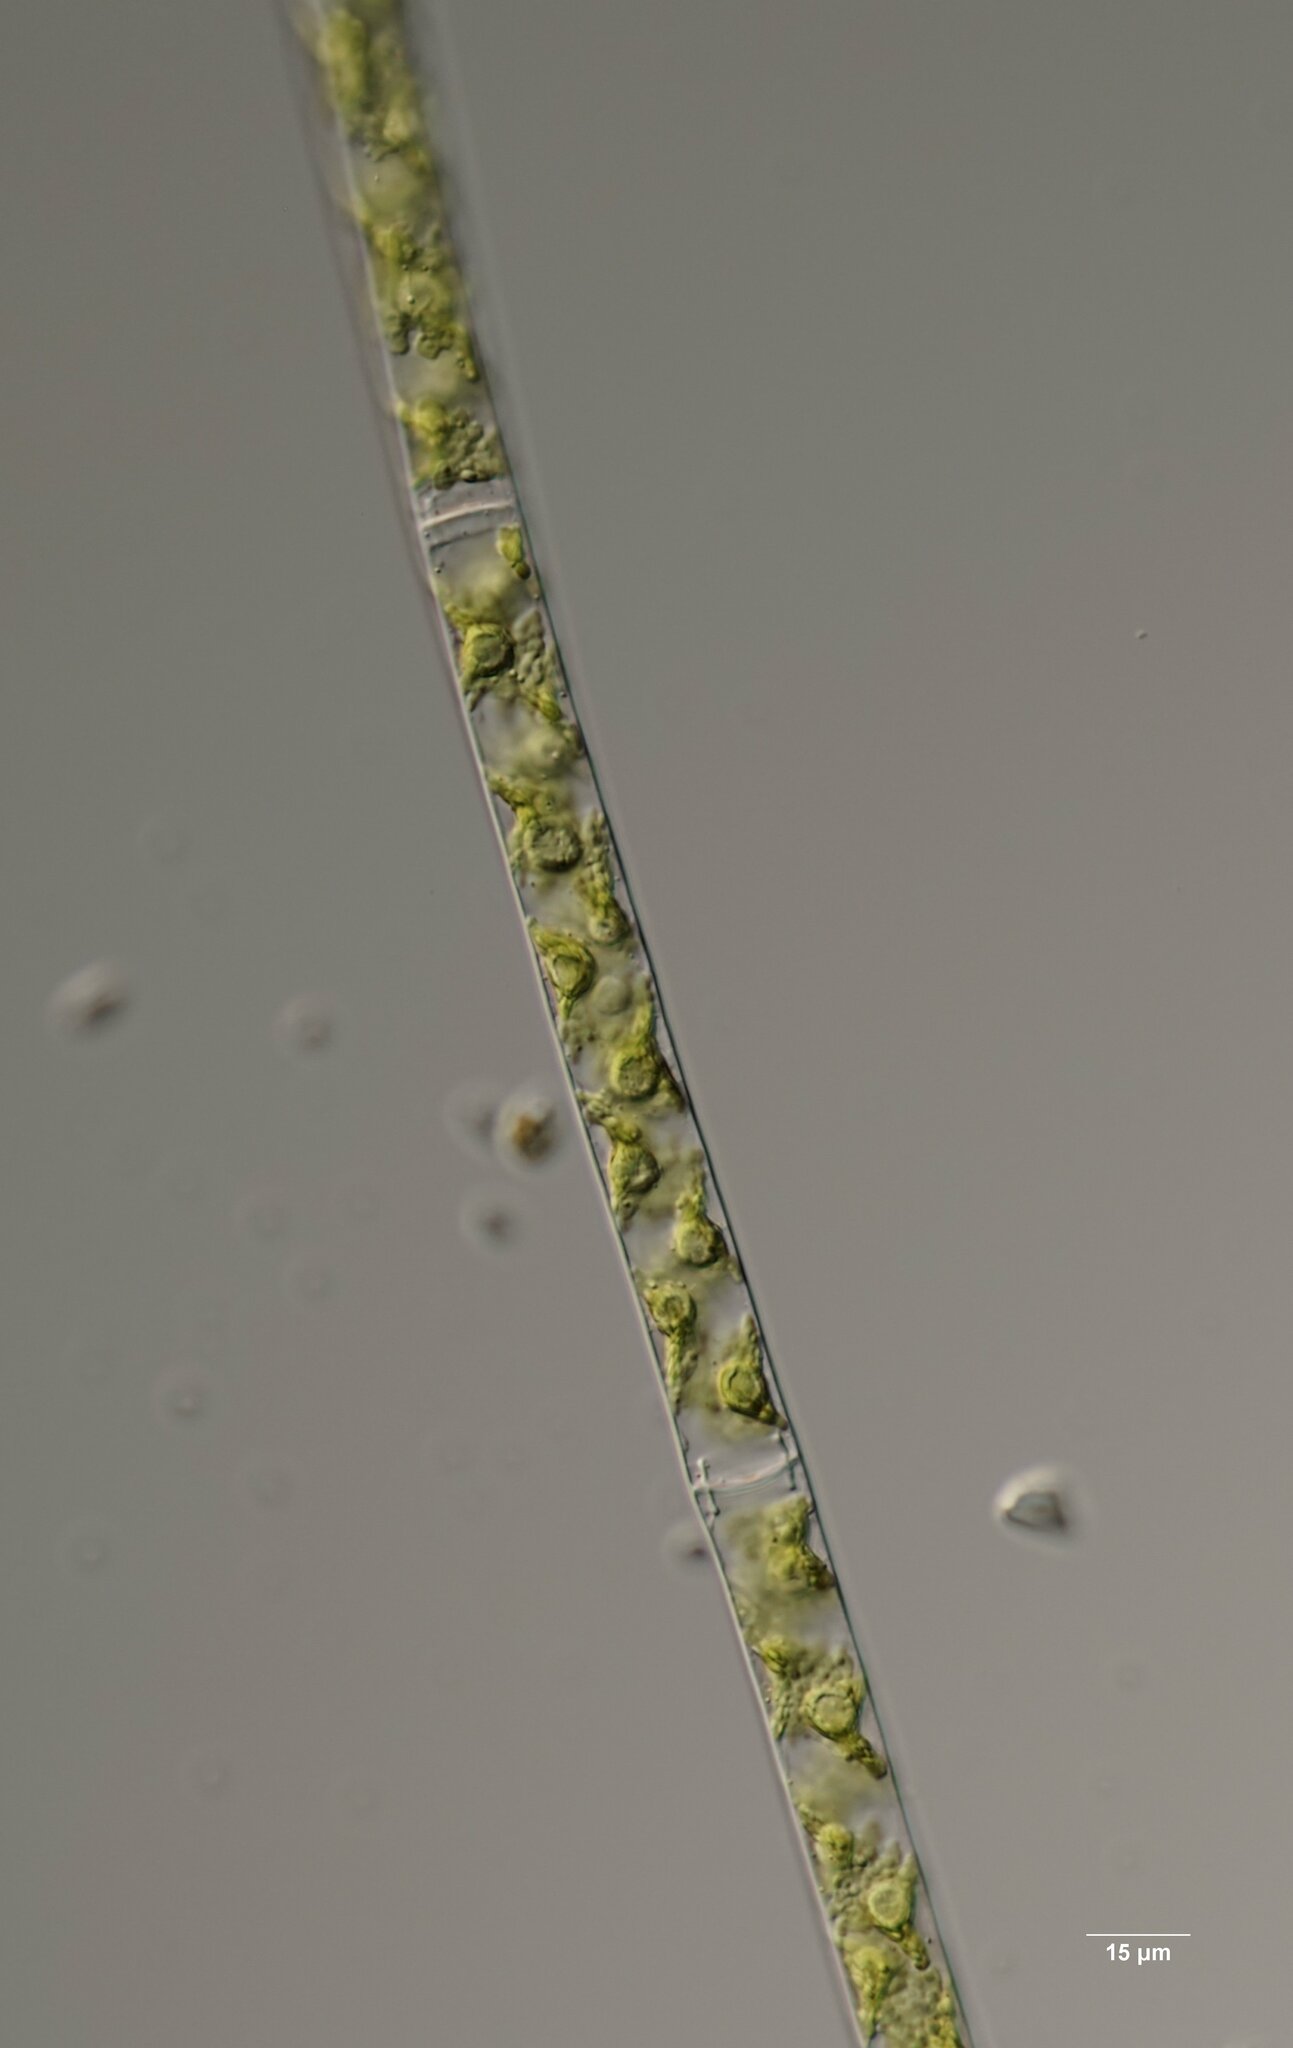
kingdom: Plantae
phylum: Charophyta
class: Zygnematophyceae
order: Zygnematales
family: Zygnemataceae
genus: Spirogyra
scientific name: Spirogyra
